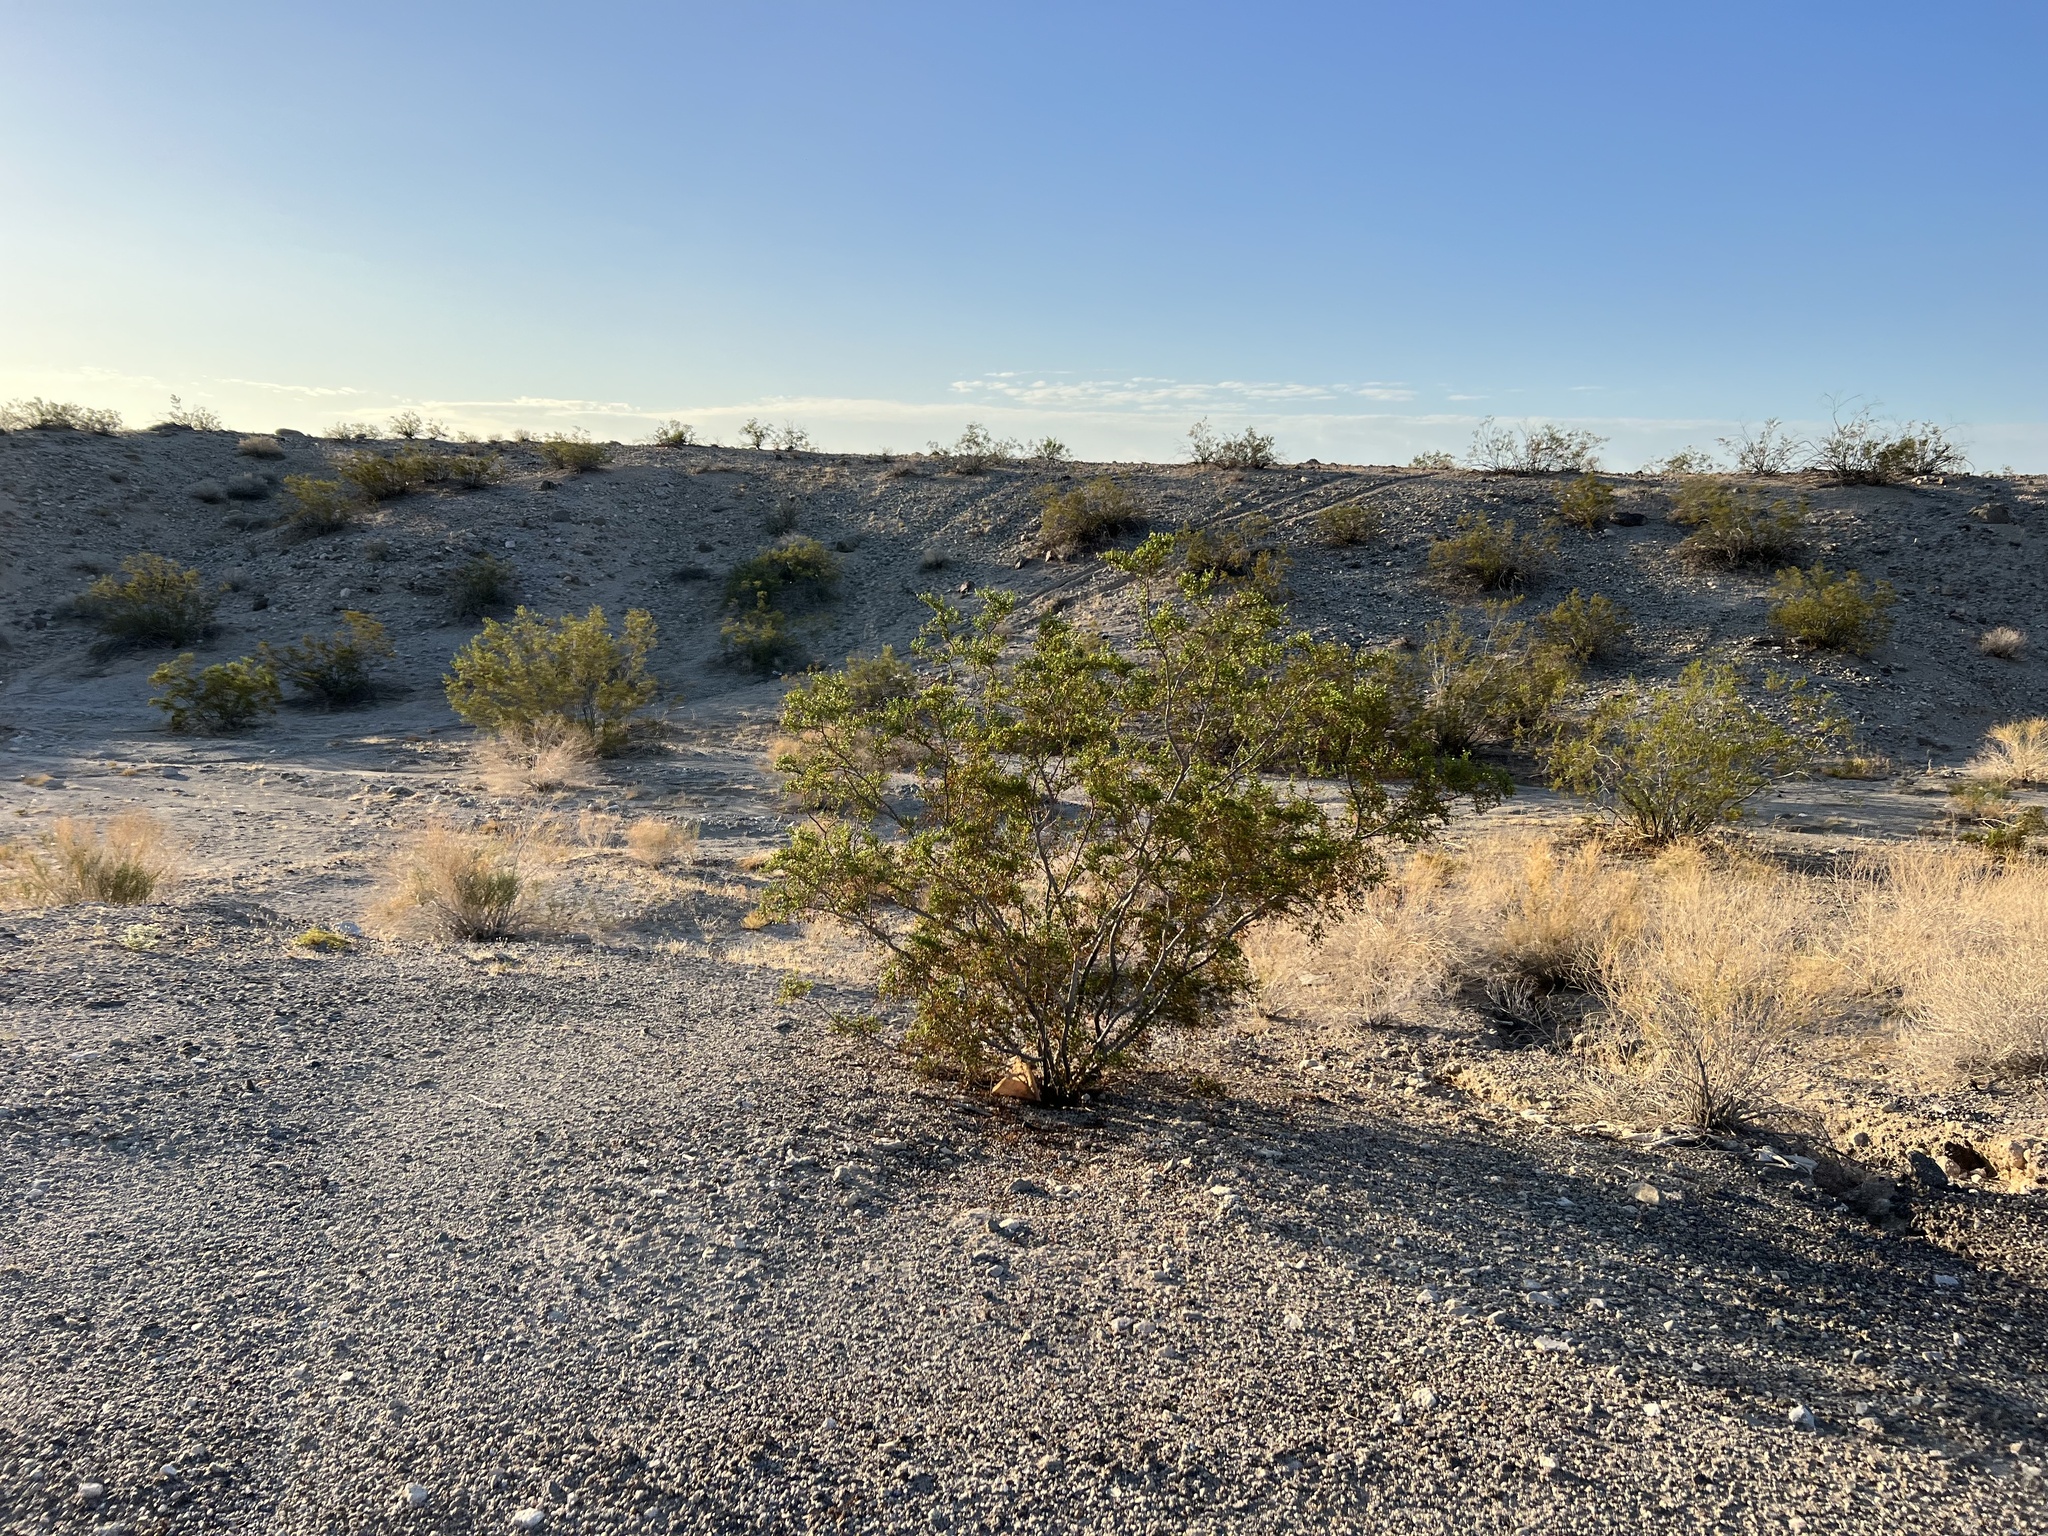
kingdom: Plantae
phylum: Tracheophyta
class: Magnoliopsida
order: Zygophyllales
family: Zygophyllaceae
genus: Larrea
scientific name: Larrea tridentata
